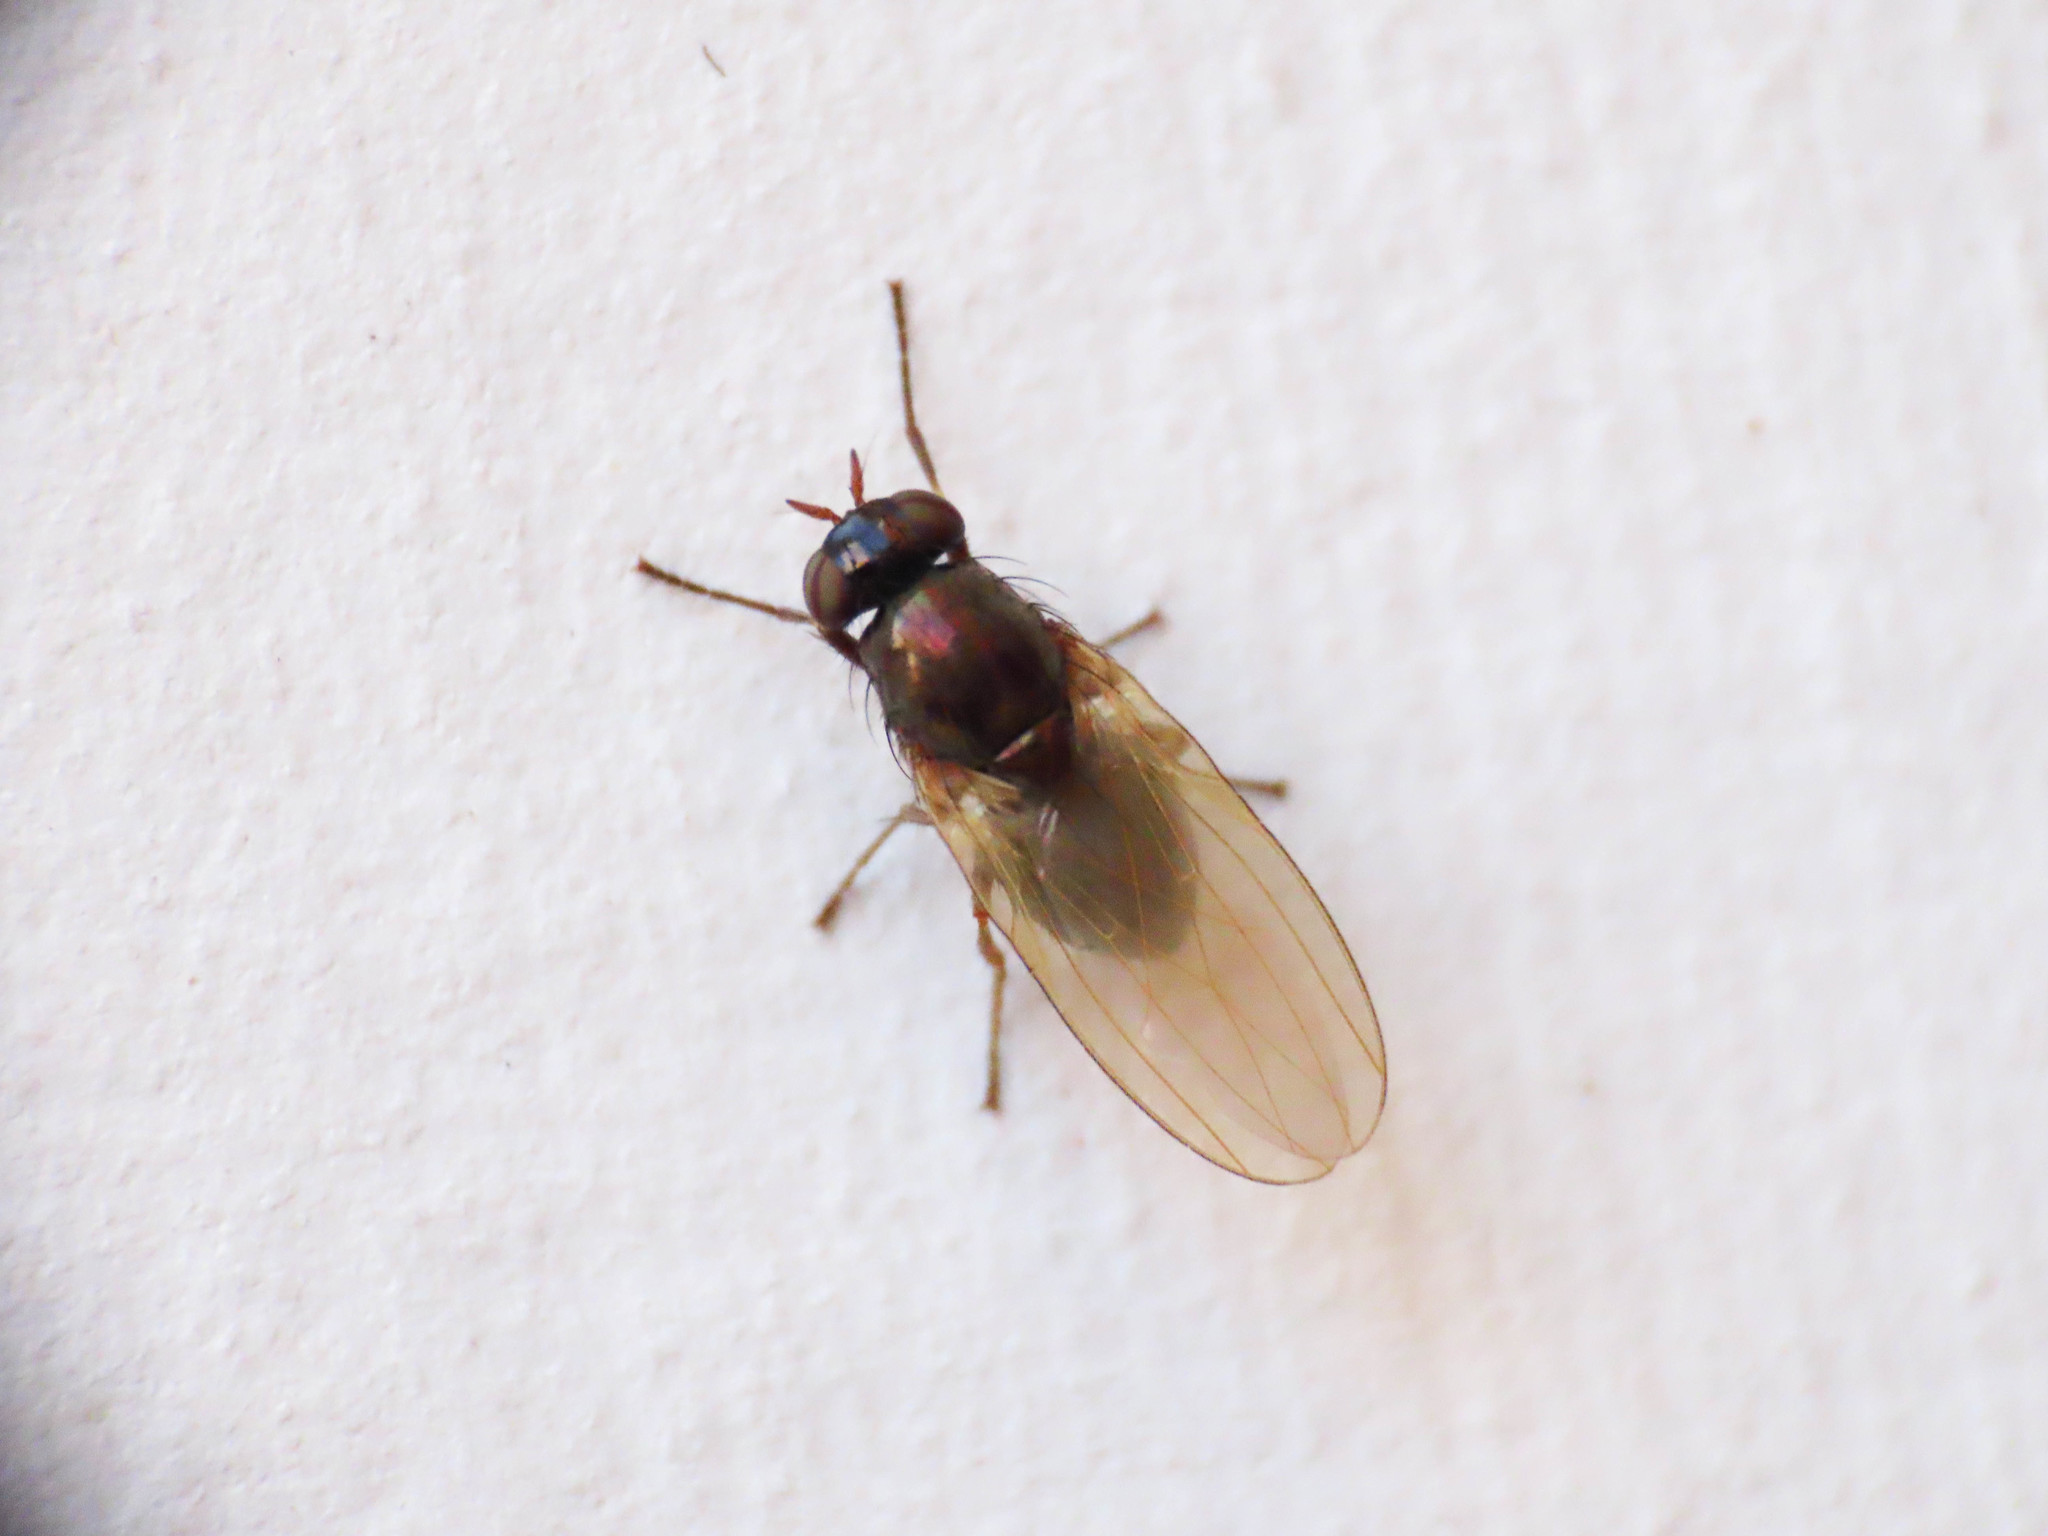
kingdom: Animalia
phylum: Arthropoda
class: Insecta
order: Diptera
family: Lauxaniidae
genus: Calliopum
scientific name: Calliopum
